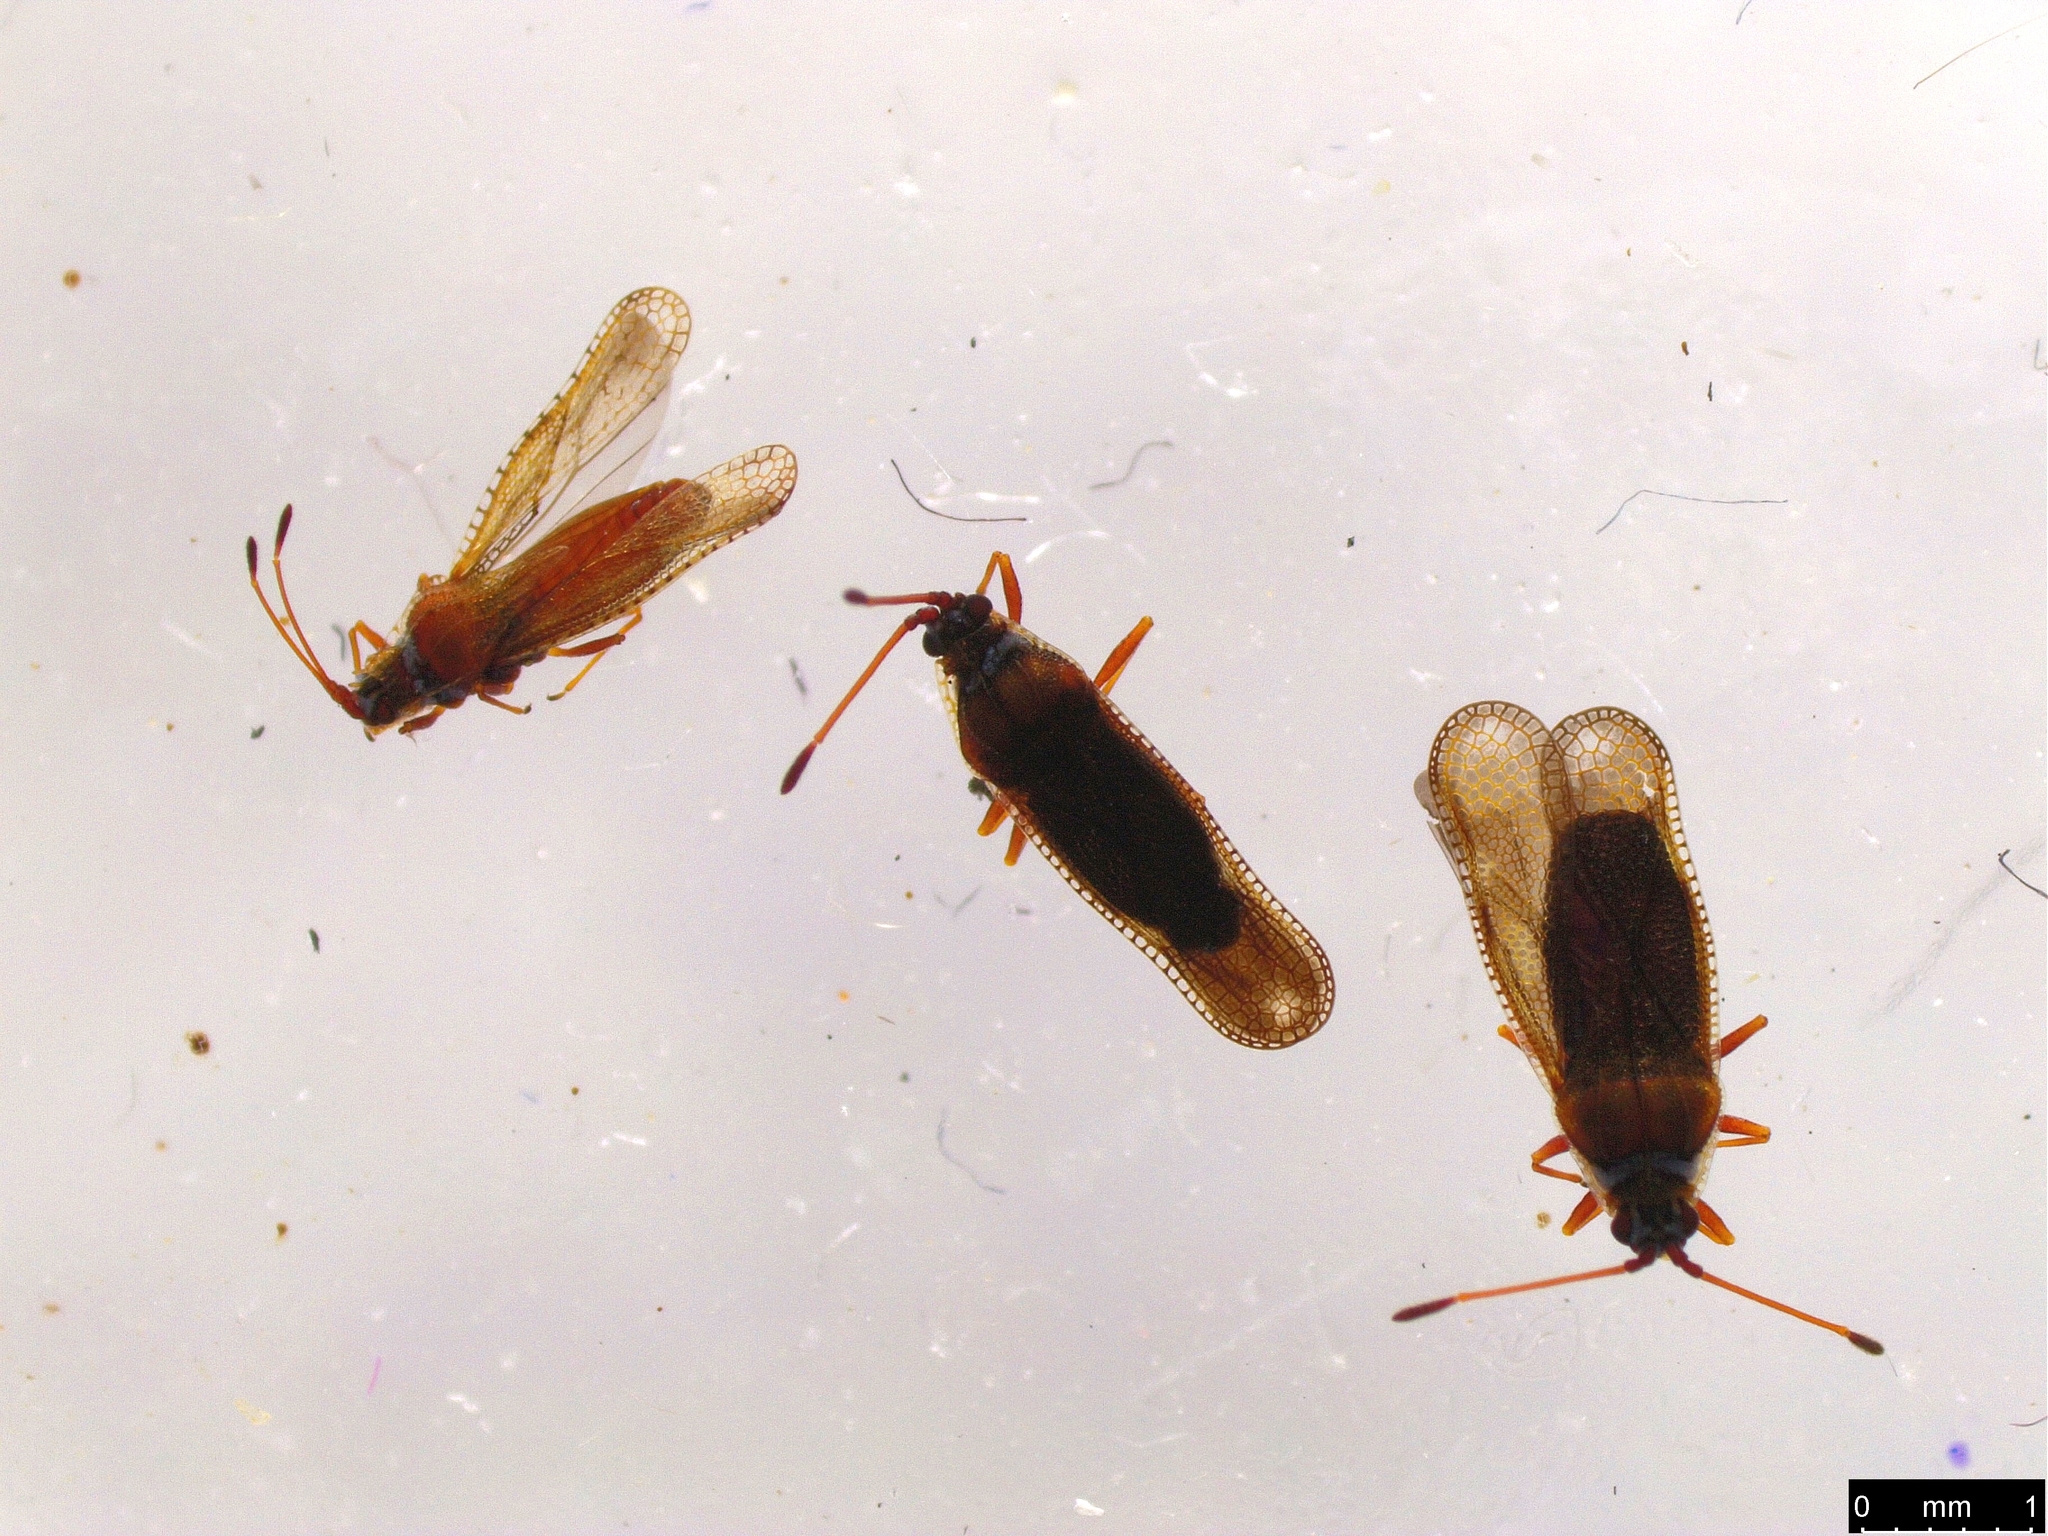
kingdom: Animalia
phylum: Arthropoda
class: Insecta
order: Hemiptera
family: Tingidae
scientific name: Tingidae
